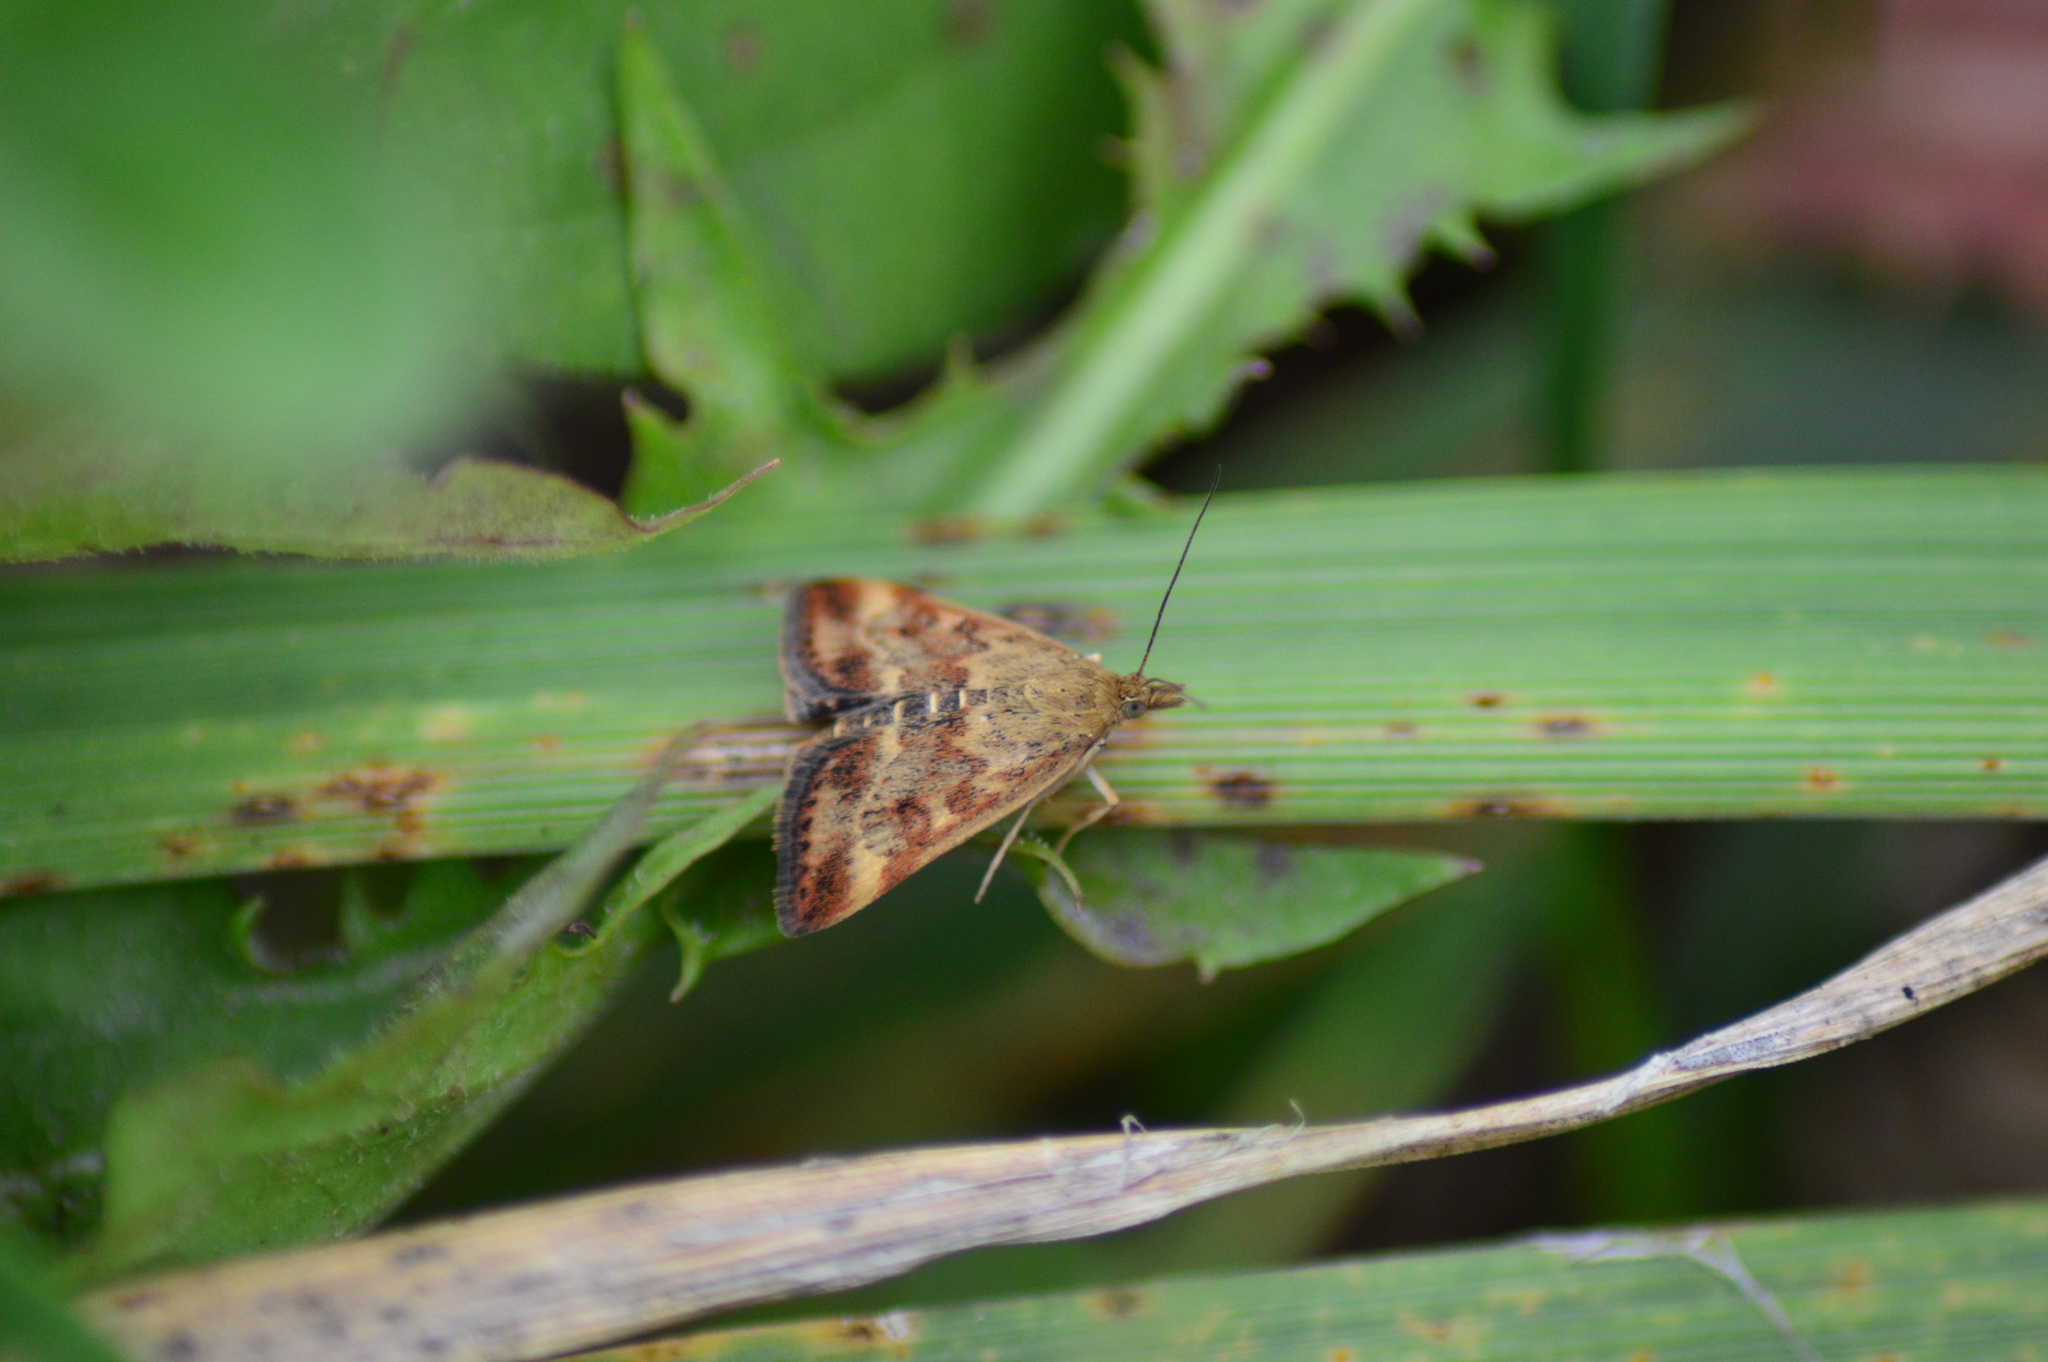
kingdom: Animalia
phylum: Arthropoda
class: Insecta
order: Lepidoptera
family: Crambidae
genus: Pyrausta
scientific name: Pyrausta despicata
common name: Straw-barred pearl
